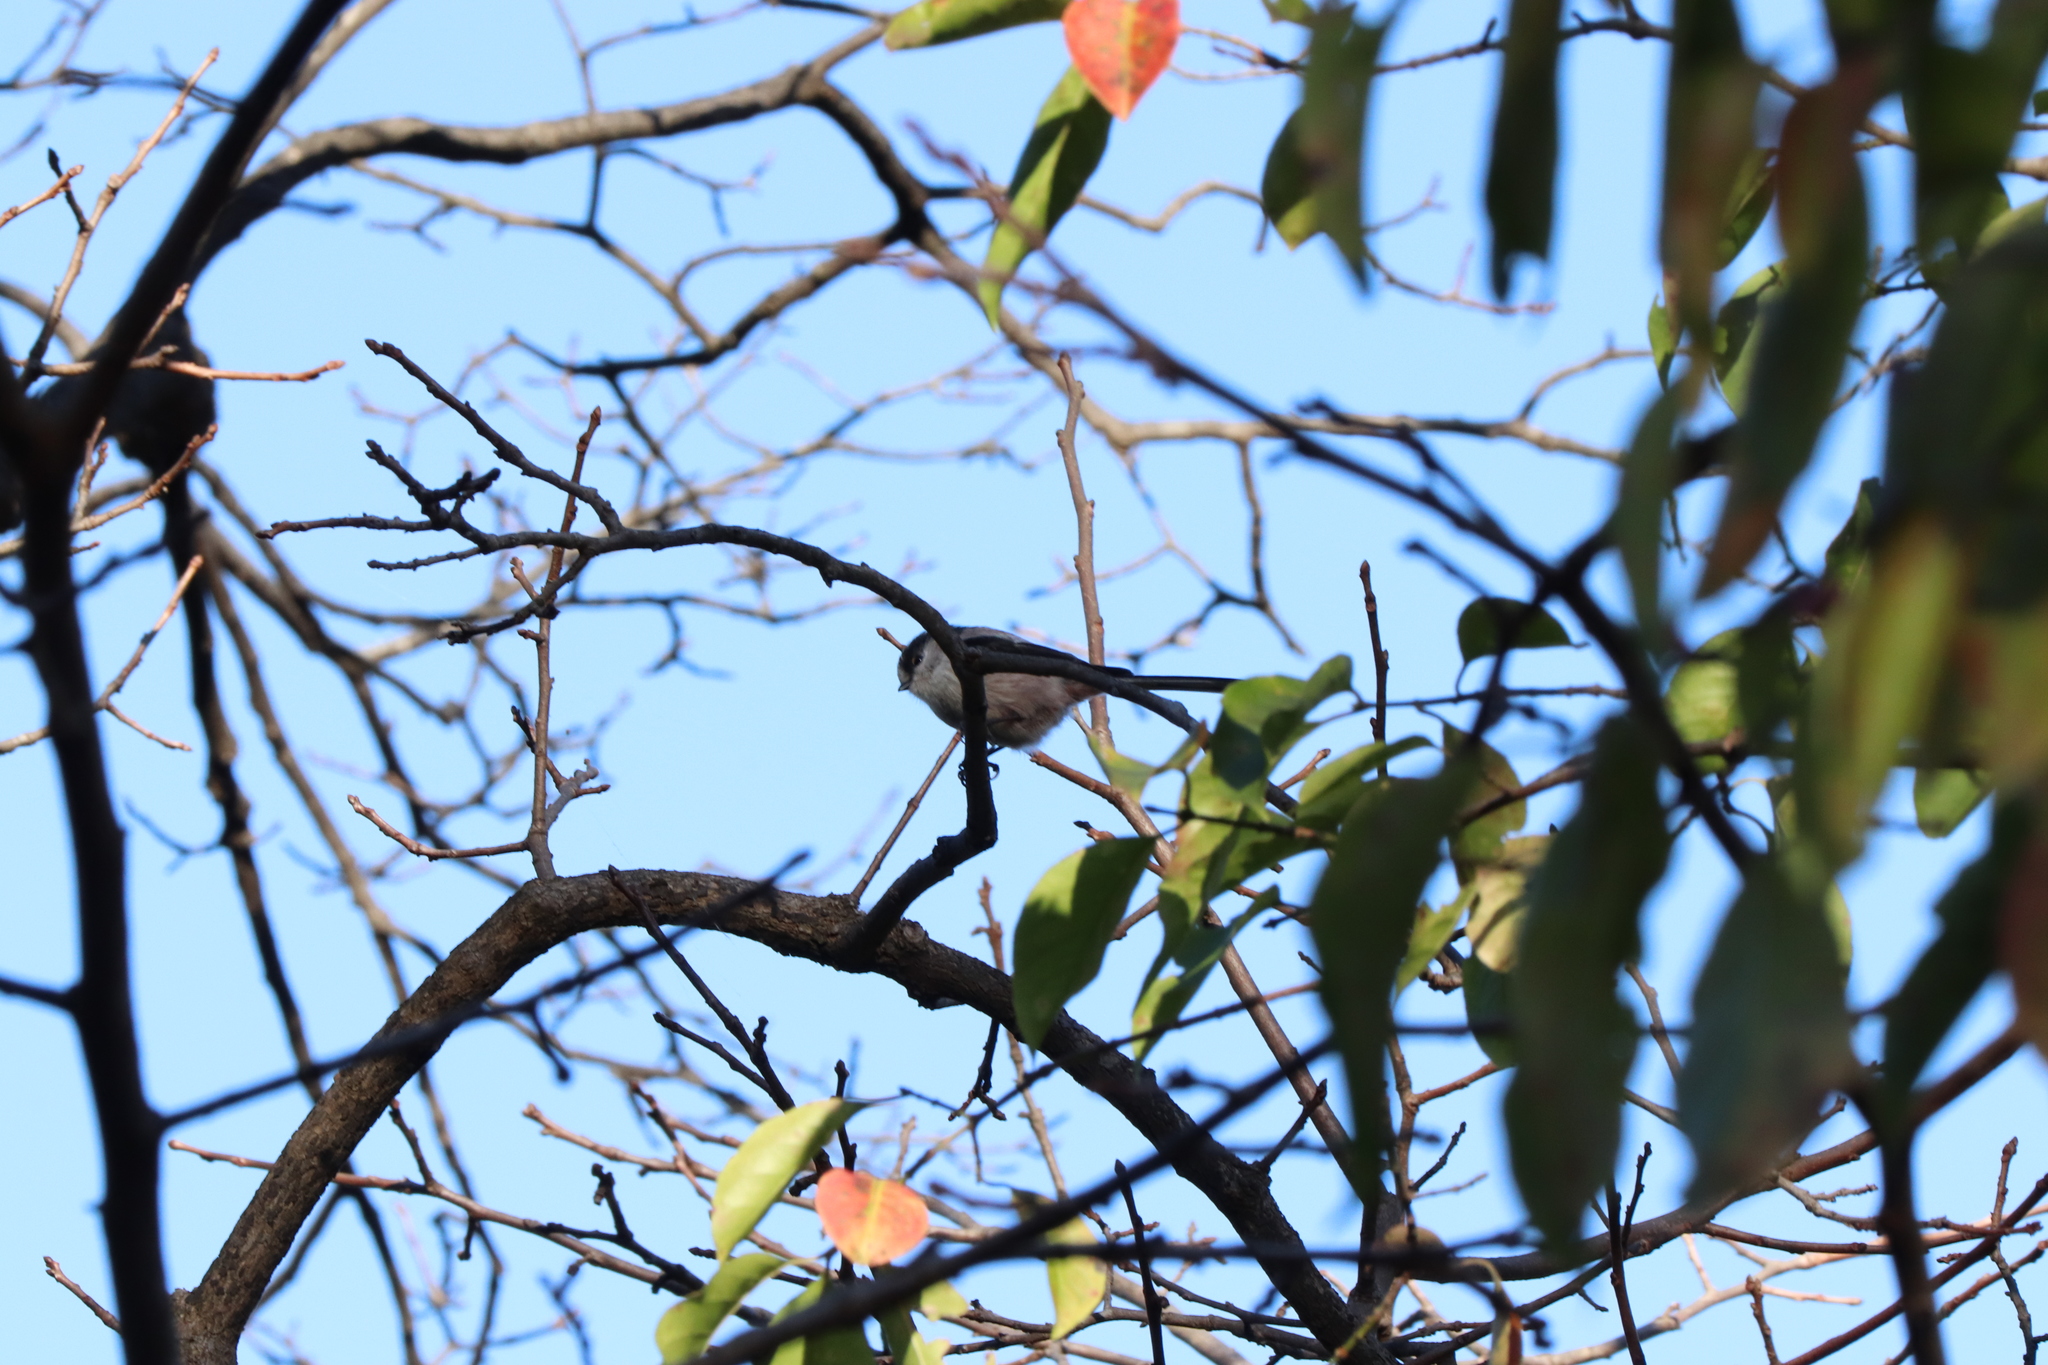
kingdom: Animalia
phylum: Chordata
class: Aves
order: Passeriformes
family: Aegithalidae
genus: Aegithalos
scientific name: Aegithalos caudatus
